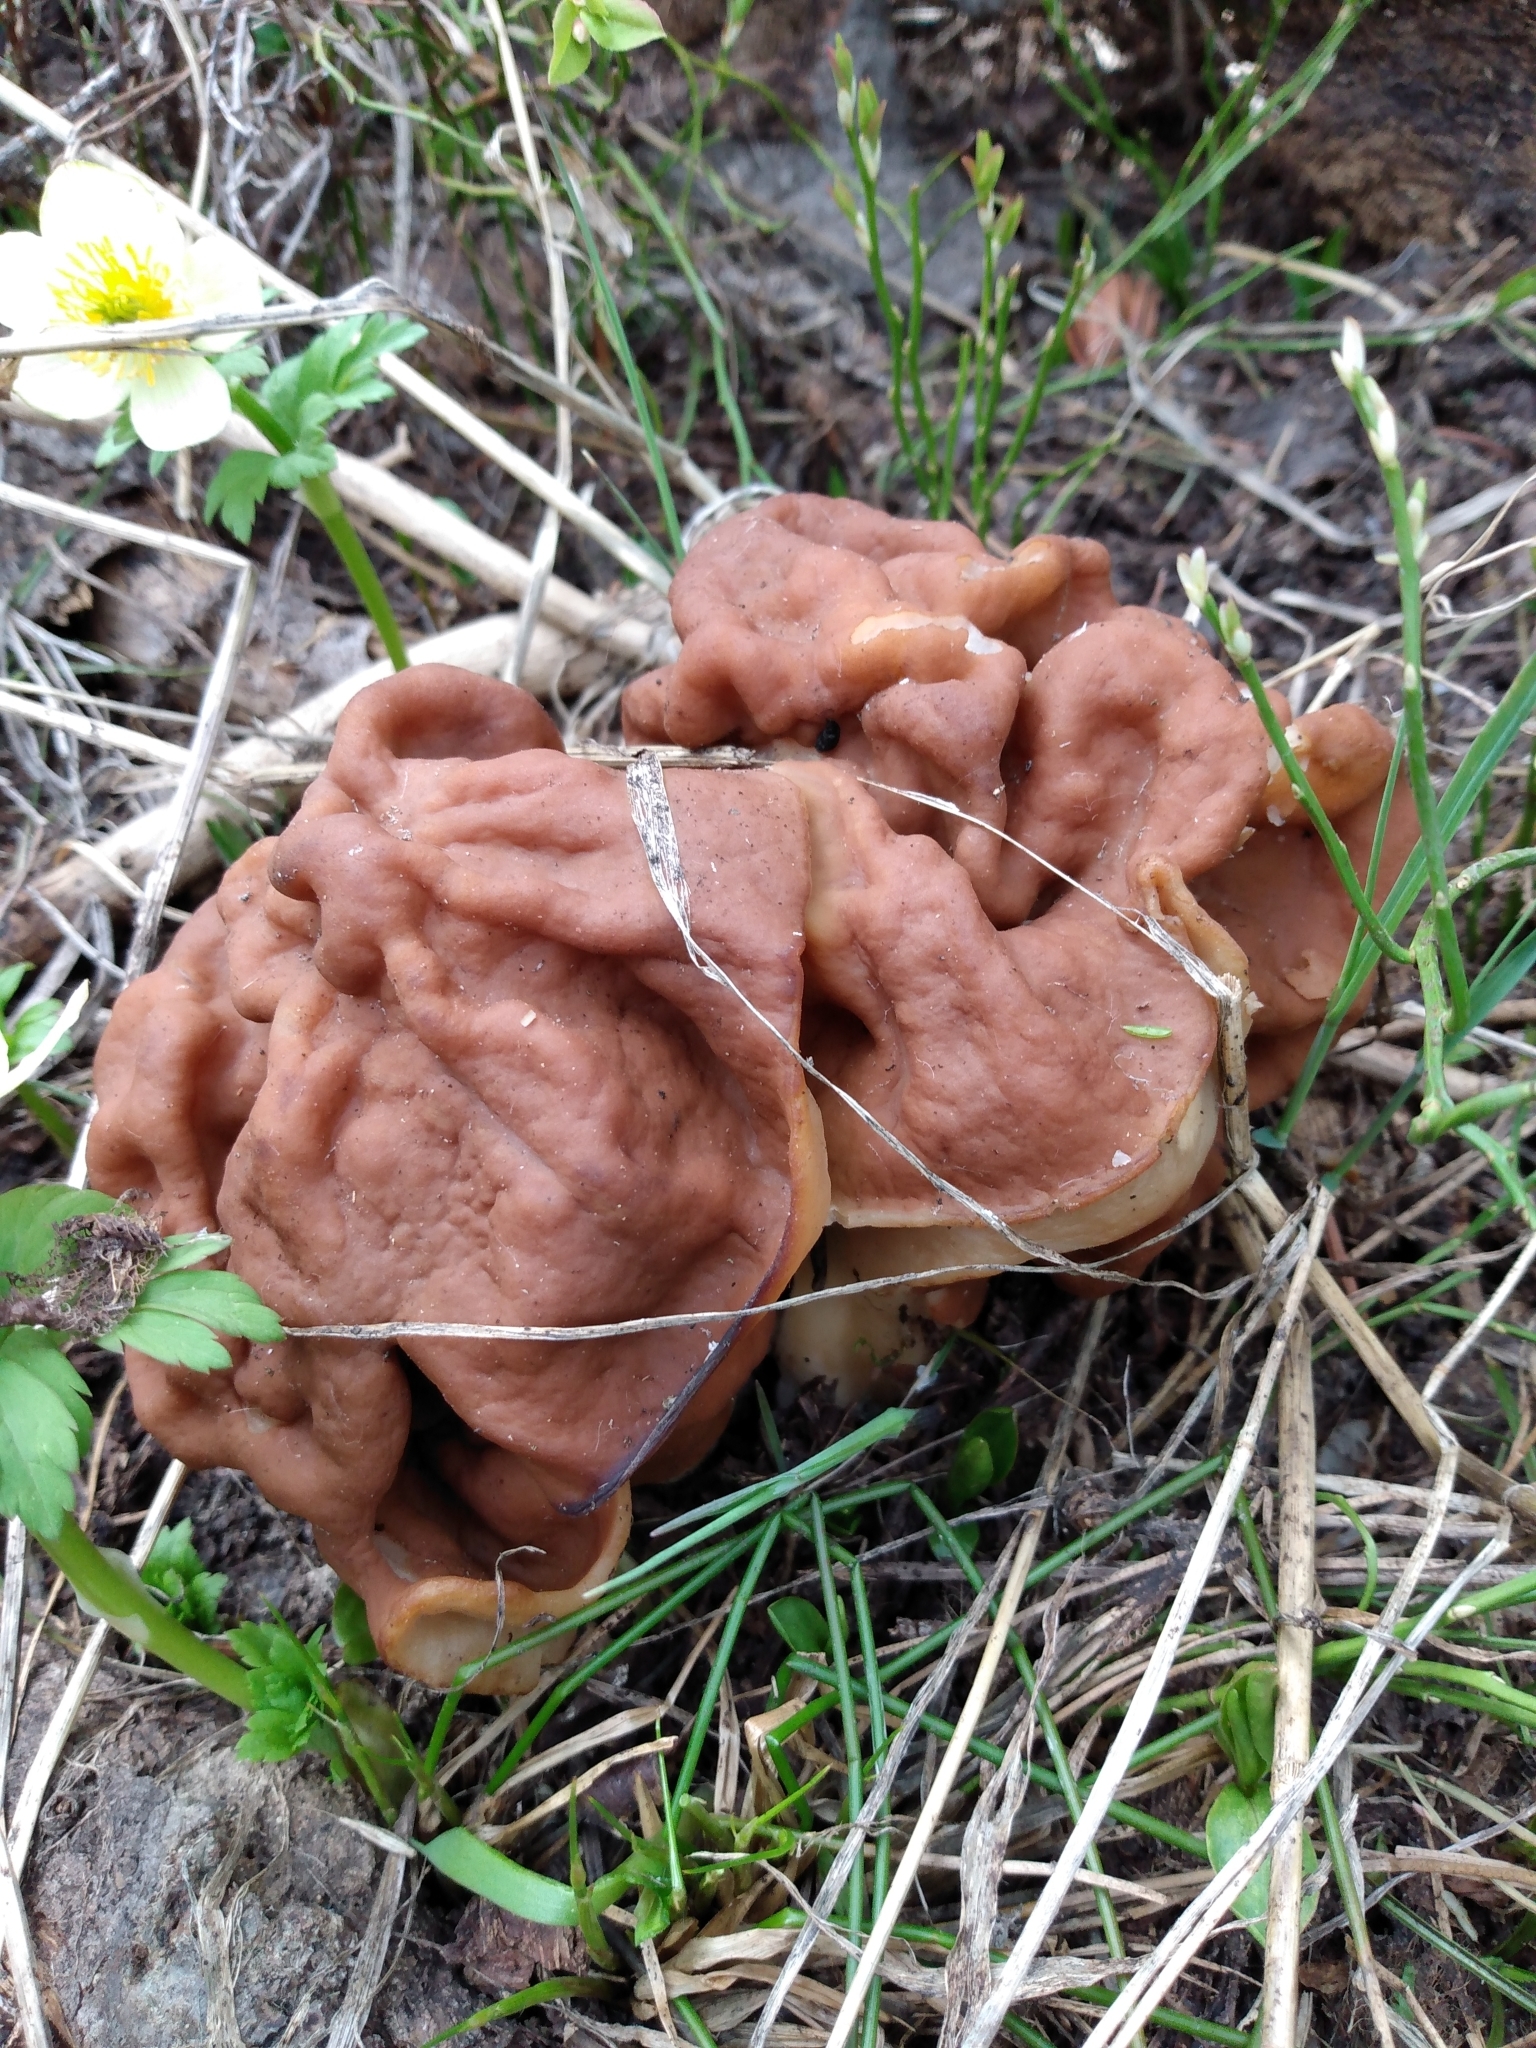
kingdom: Fungi
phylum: Ascomycota
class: Pezizomycetes
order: Pezizales
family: Discinaceae
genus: Discina
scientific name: Discina montana
